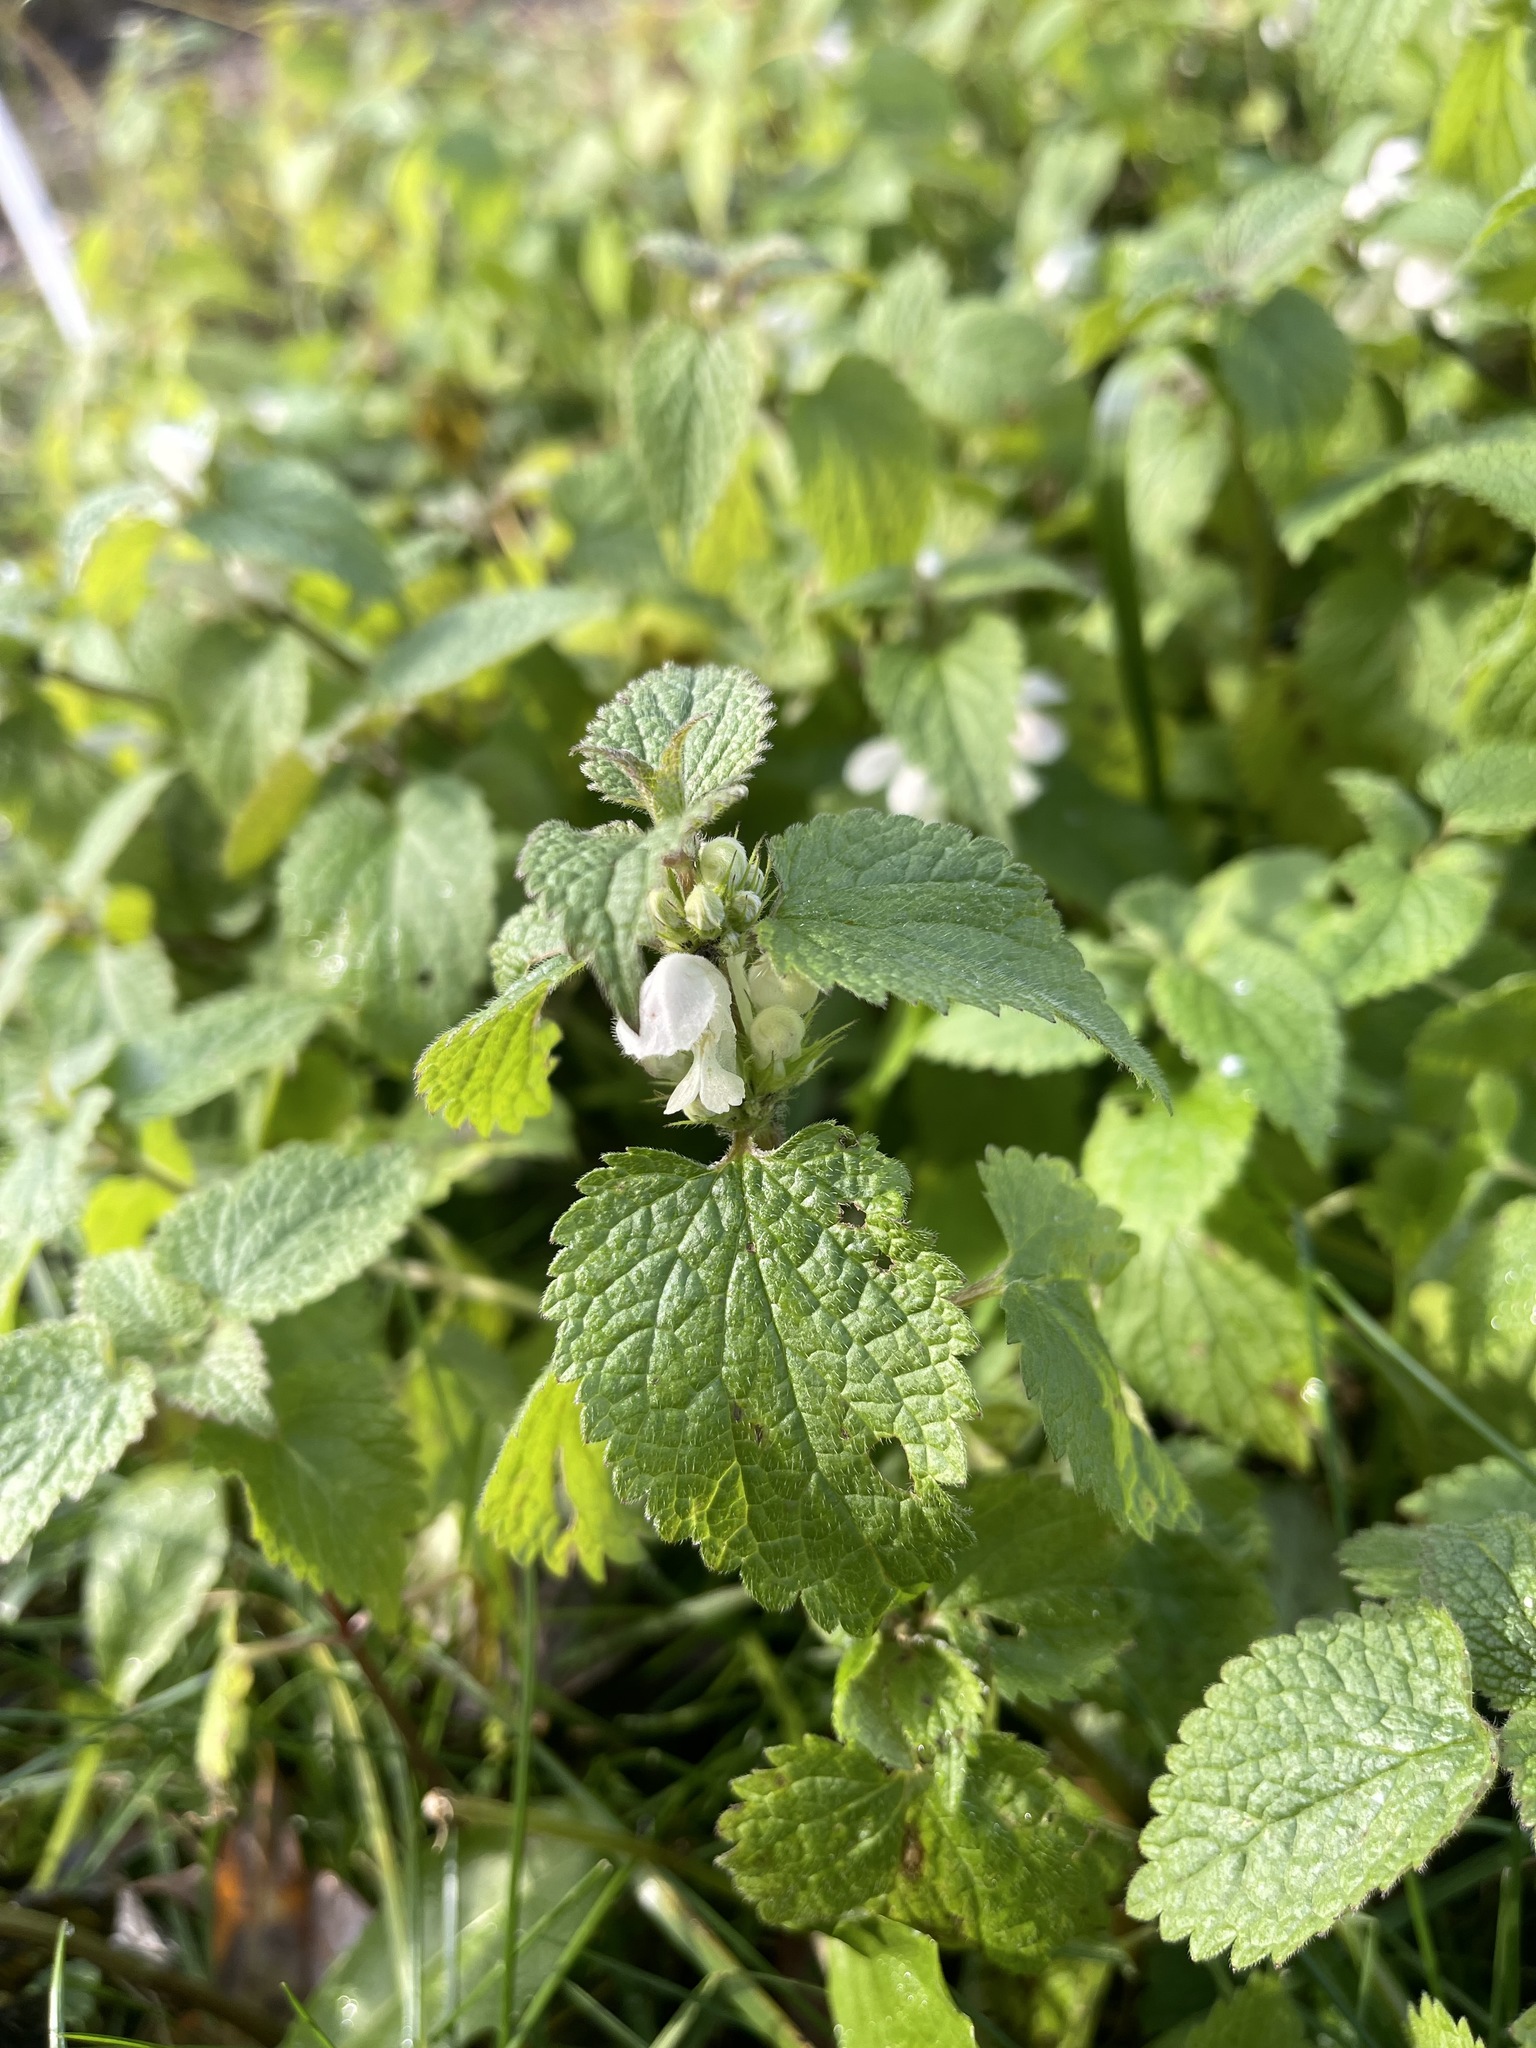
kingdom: Plantae
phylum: Tracheophyta
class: Magnoliopsida
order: Lamiales
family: Lamiaceae
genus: Lamium
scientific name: Lamium album
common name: White dead-nettle
